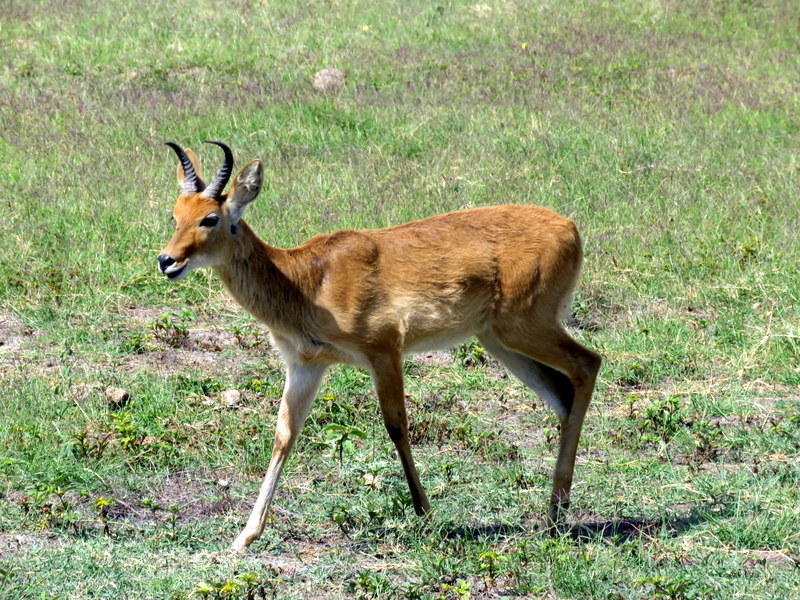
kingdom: Animalia
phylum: Chordata
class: Mammalia
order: Artiodactyla
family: Bovidae
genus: Redunca
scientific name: Redunca redunca
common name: Common reedbuck
